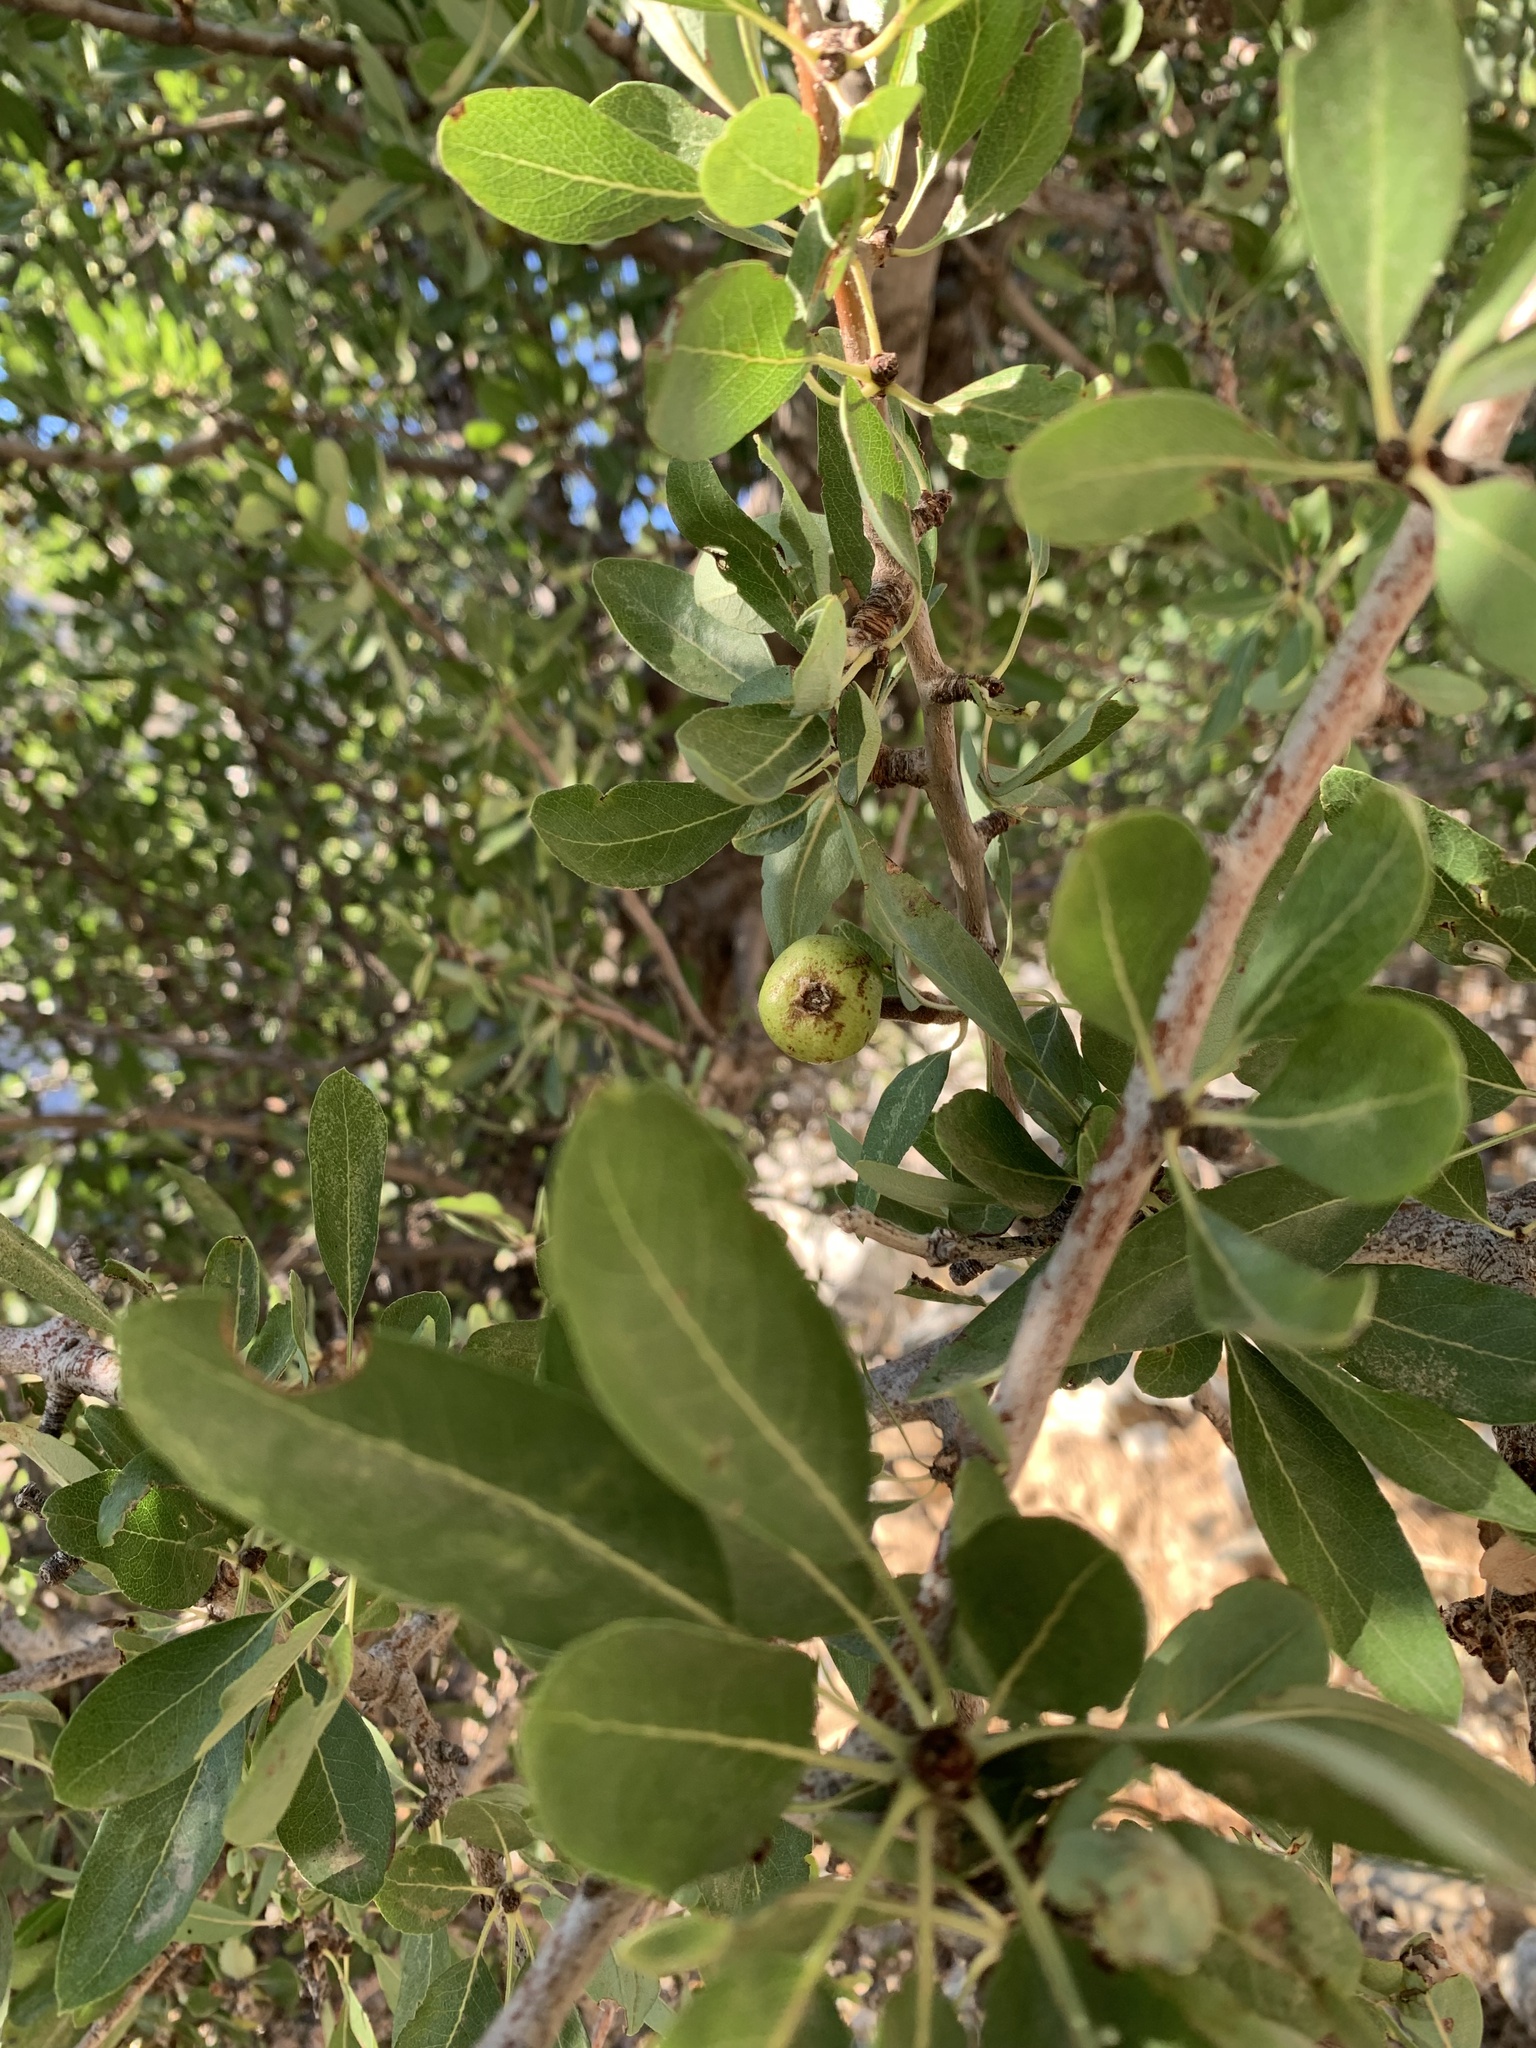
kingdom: Plantae
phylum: Tracheophyta
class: Magnoliopsida
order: Rosales
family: Rosaceae
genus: Pyrus
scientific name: Pyrus spinosa
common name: Almond-leaf pear
